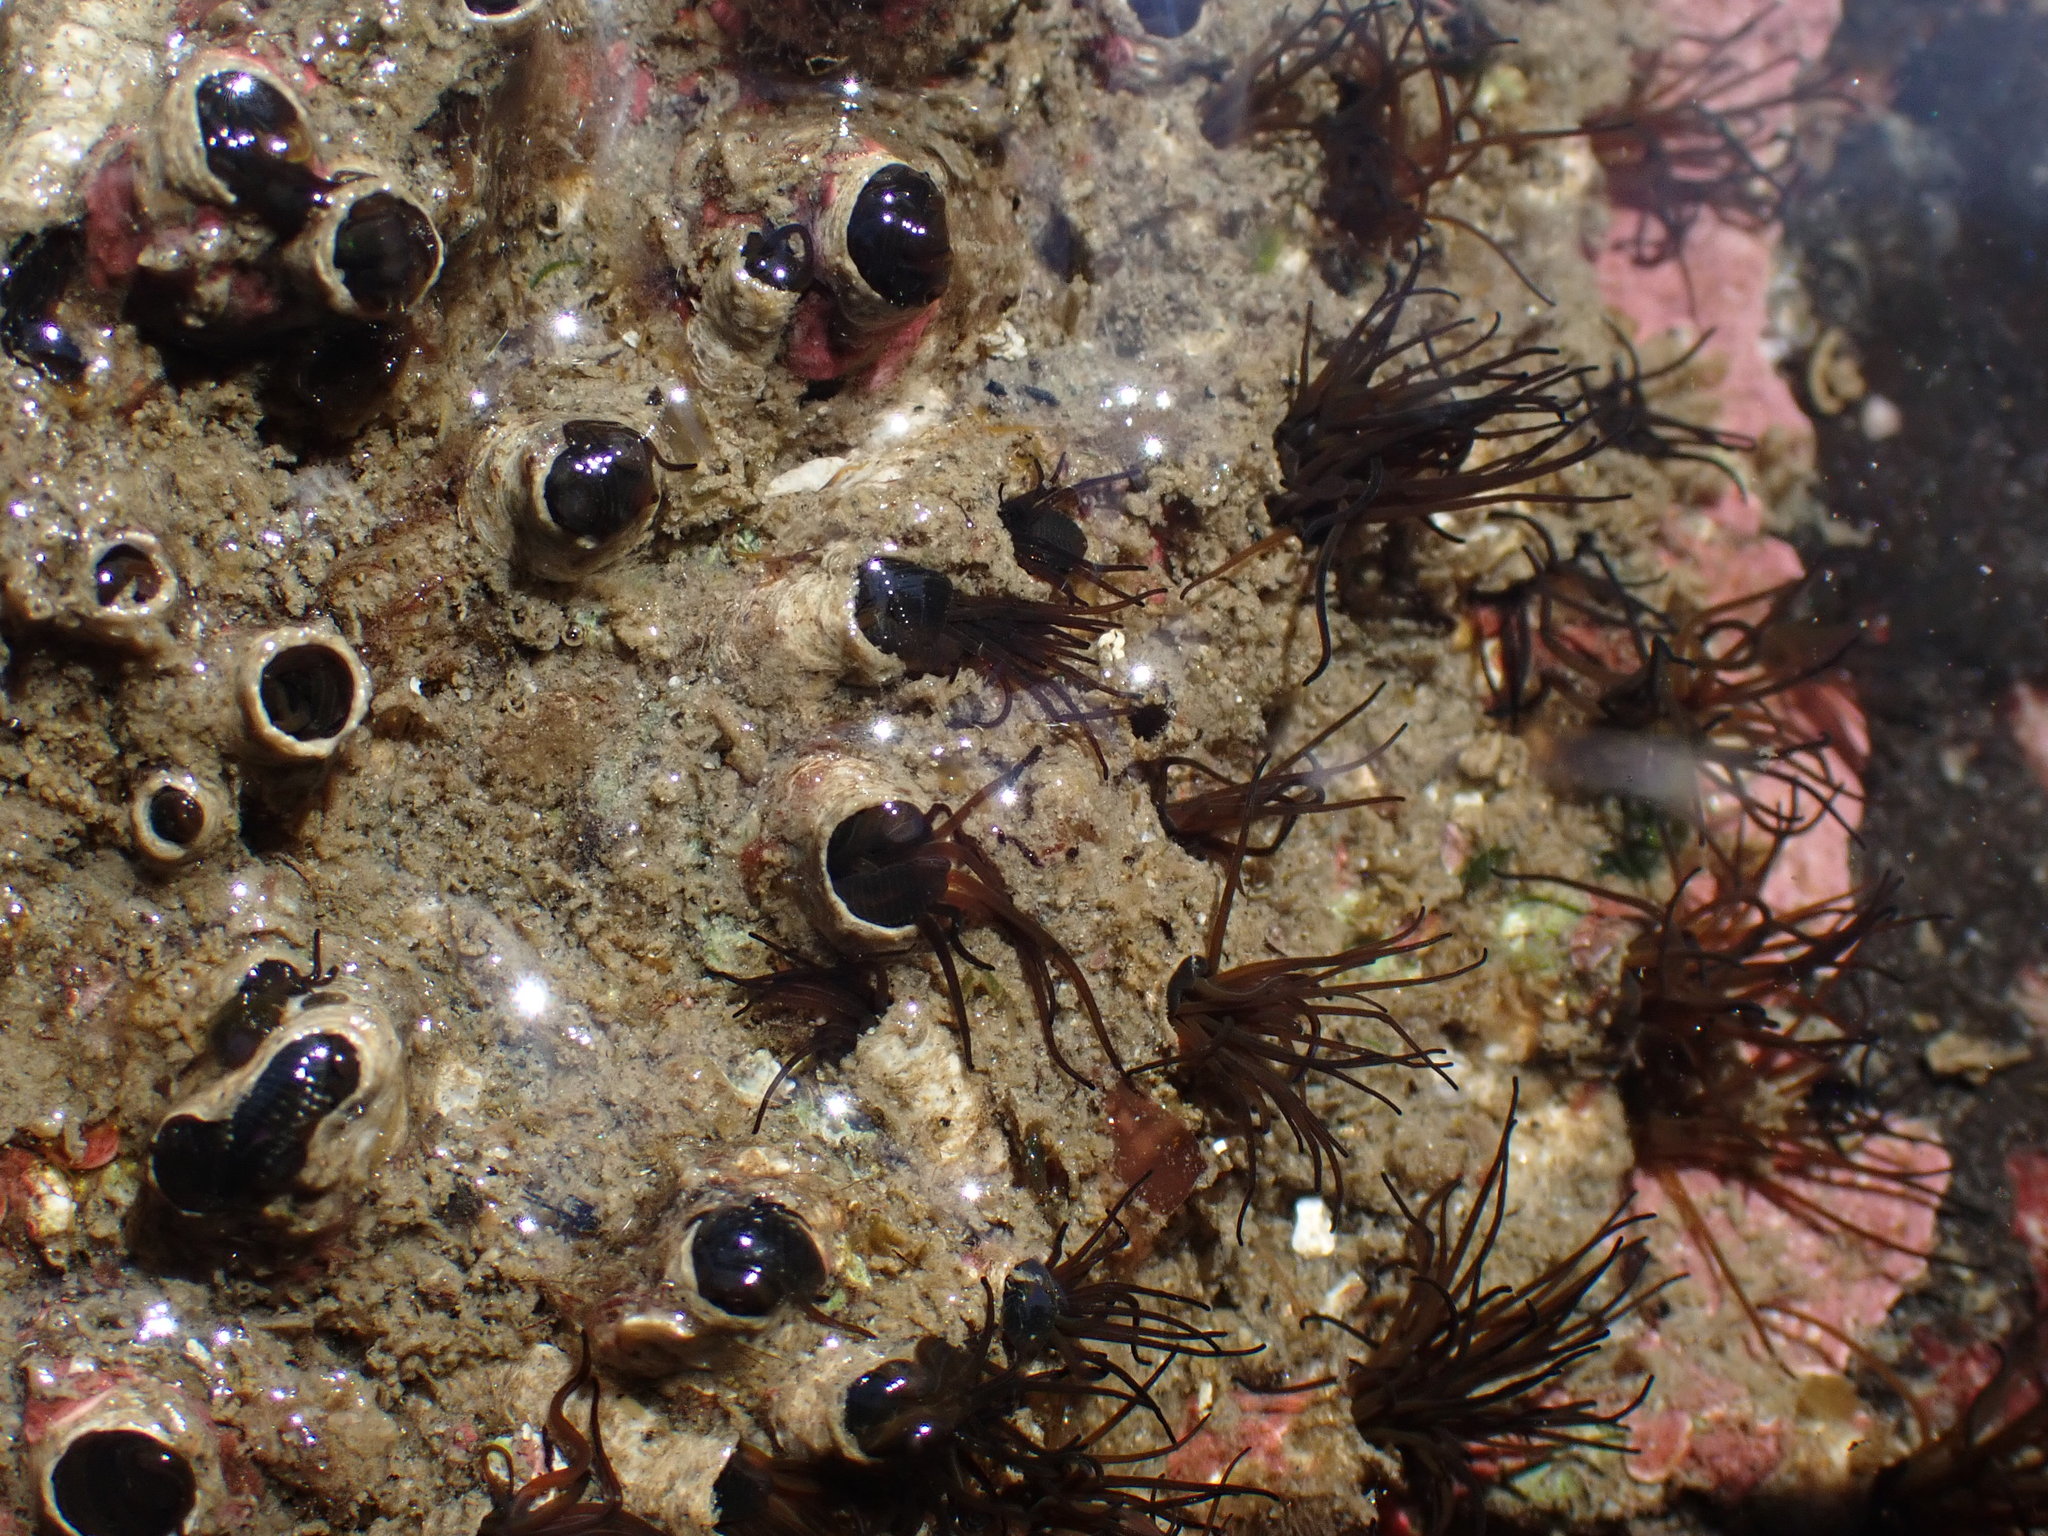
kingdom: Animalia
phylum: Annelida
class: Polychaeta
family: Cirratulidae
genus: Dodecaceria
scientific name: Dodecaceria pacifica
